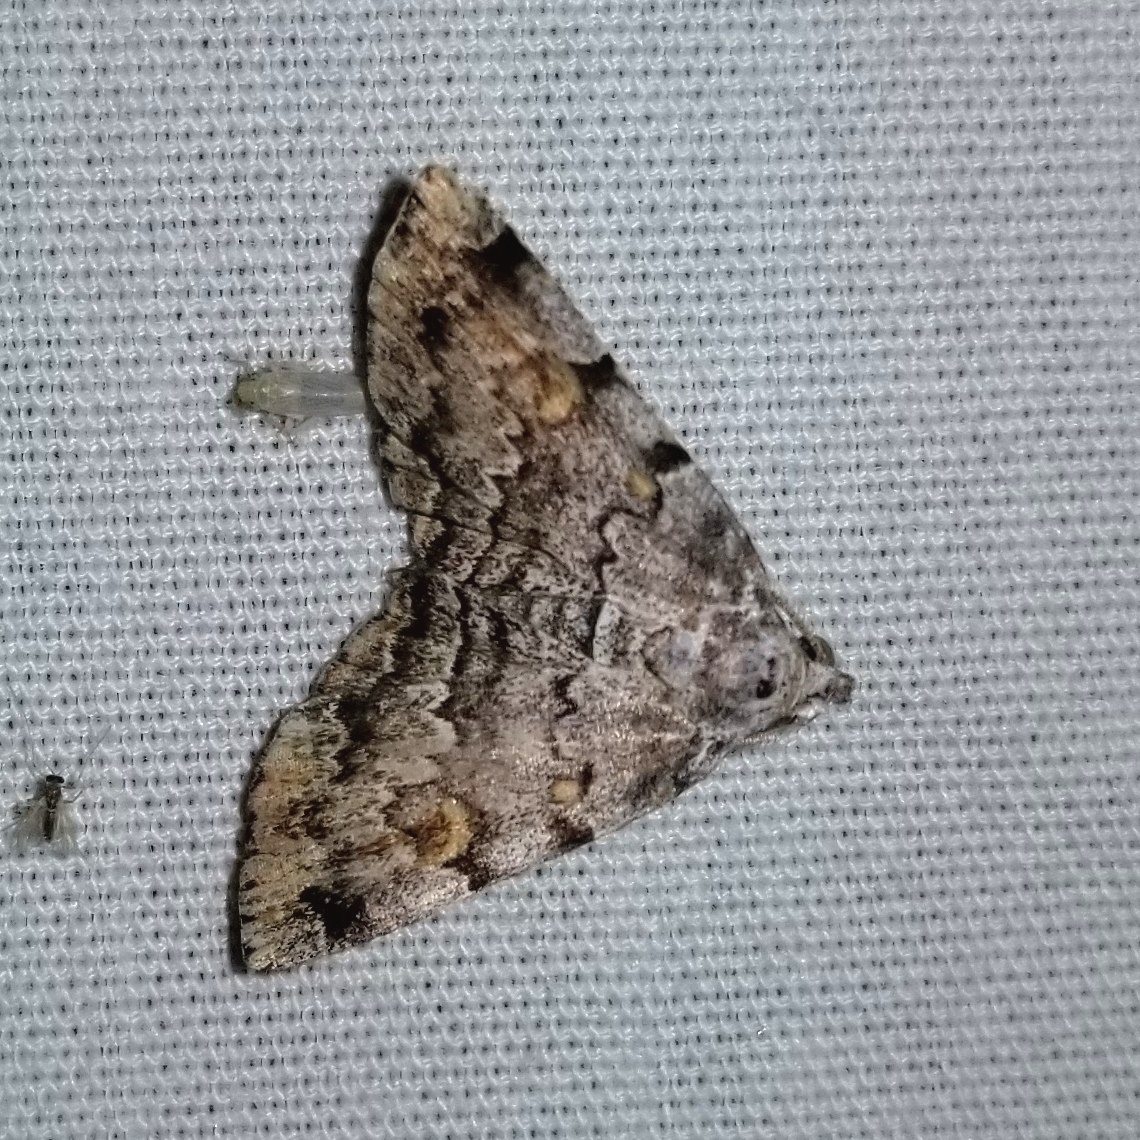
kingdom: Animalia
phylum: Arthropoda
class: Insecta
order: Lepidoptera
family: Erebidae
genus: Idia
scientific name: Idia americalis
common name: American idia moth
